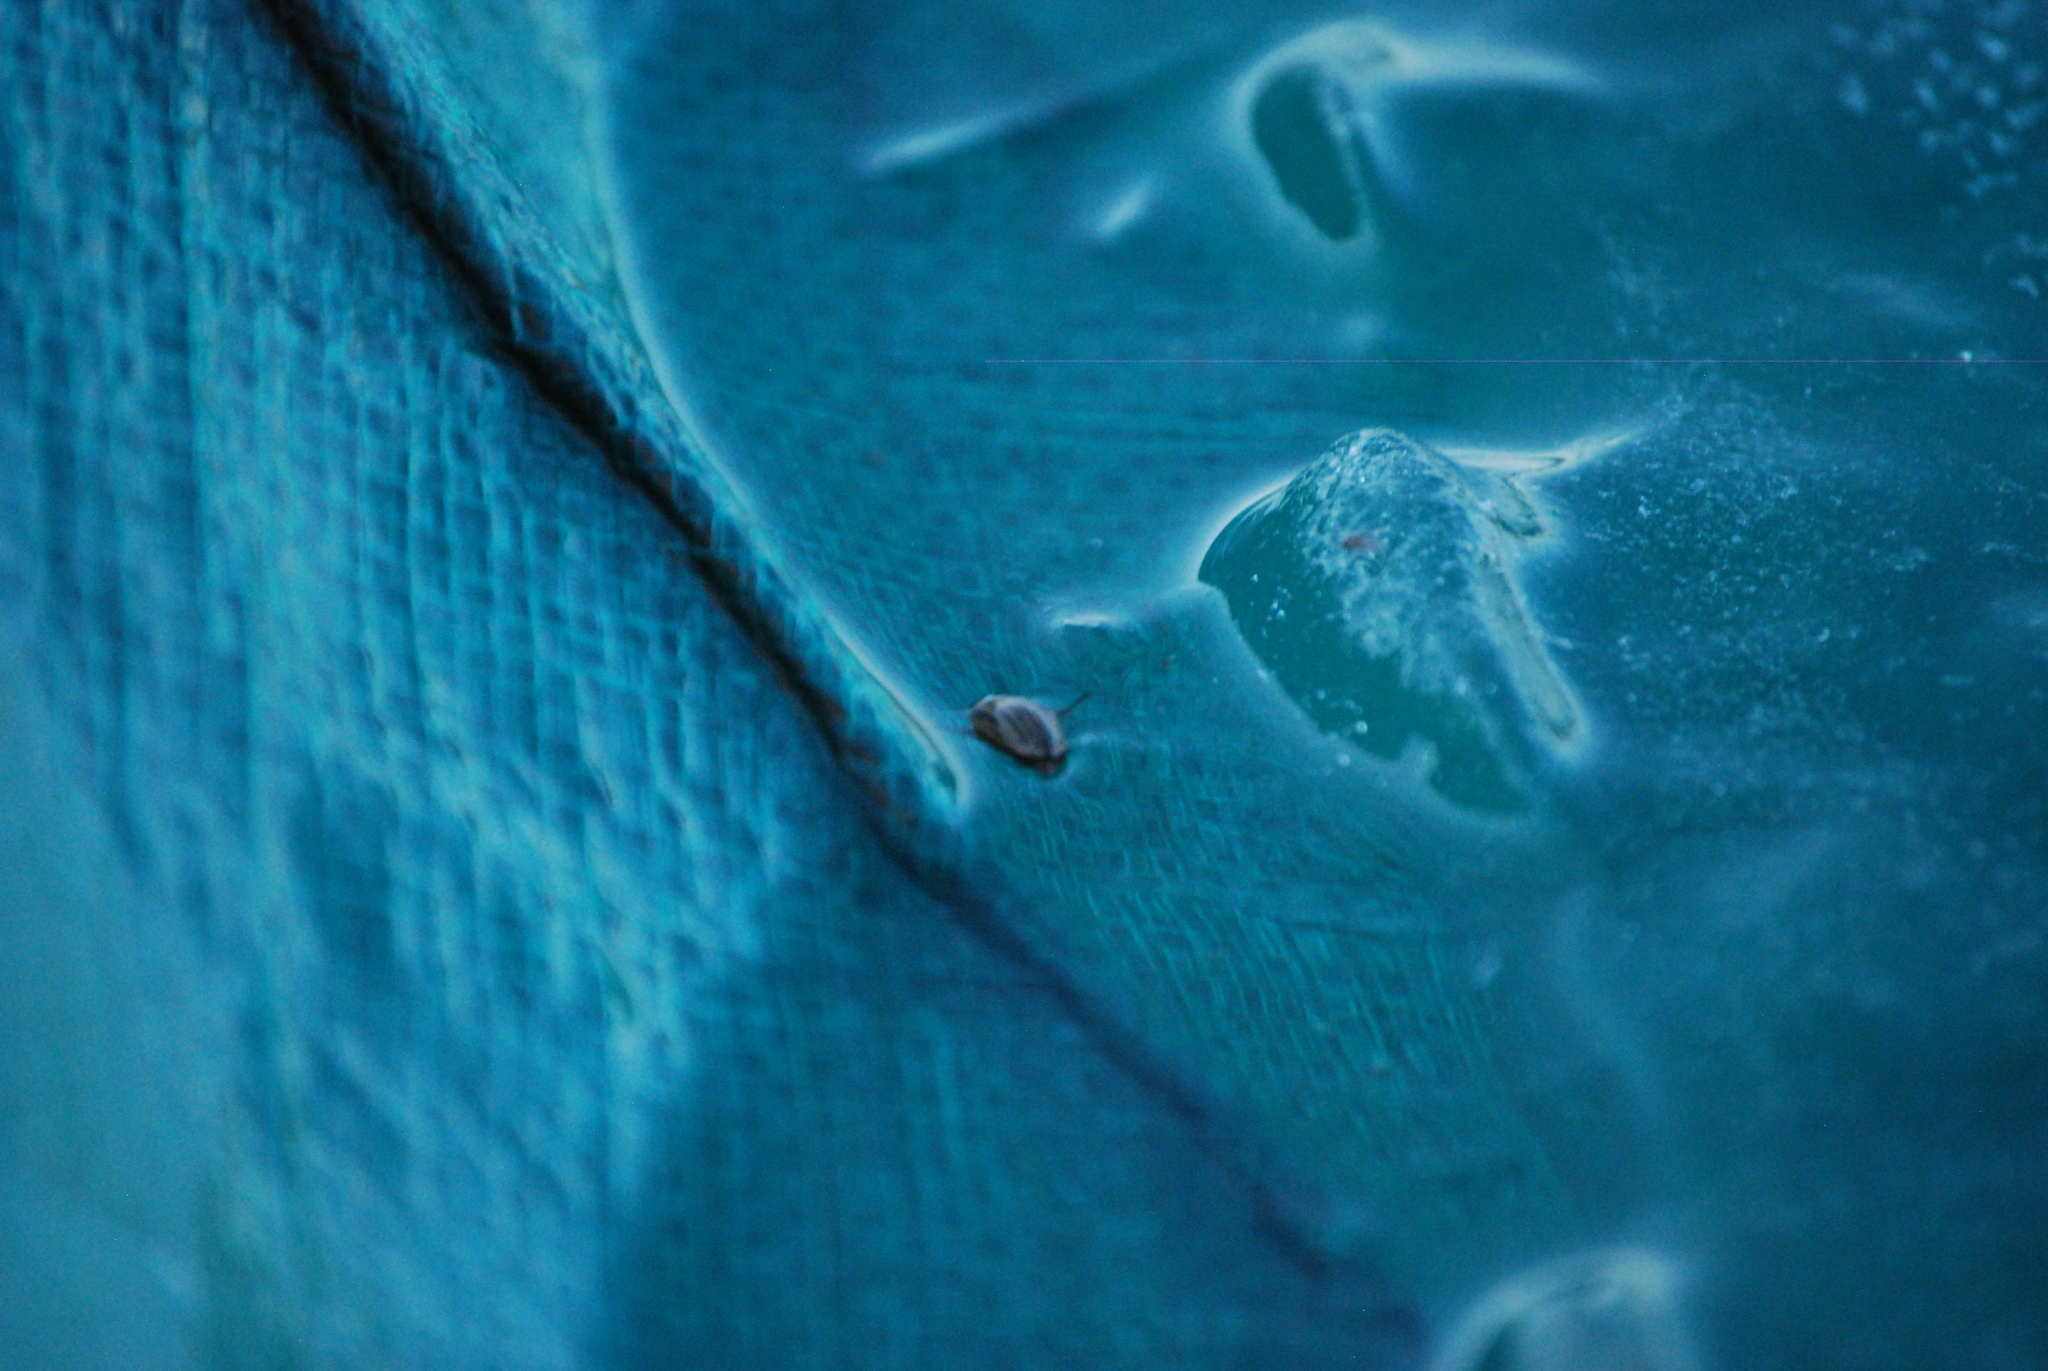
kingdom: Animalia
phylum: Arthropoda
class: Insecta
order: Coleoptera
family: Hydrophilidae
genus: Tropisternus
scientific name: Tropisternus collaris
